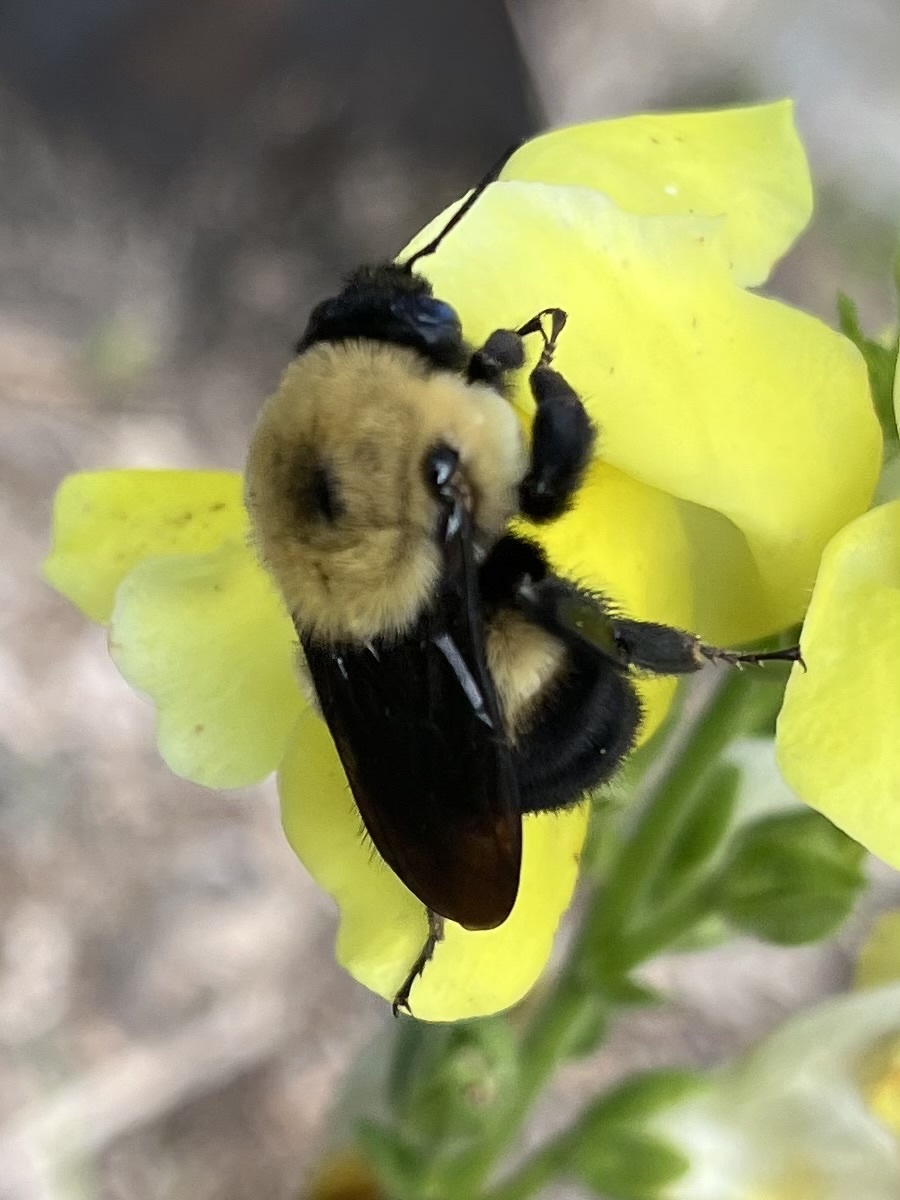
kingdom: Animalia
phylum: Arthropoda
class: Insecta
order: Hymenoptera
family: Apidae
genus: Bombus
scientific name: Bombus griseocollis
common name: Brown-belted bumble bee
